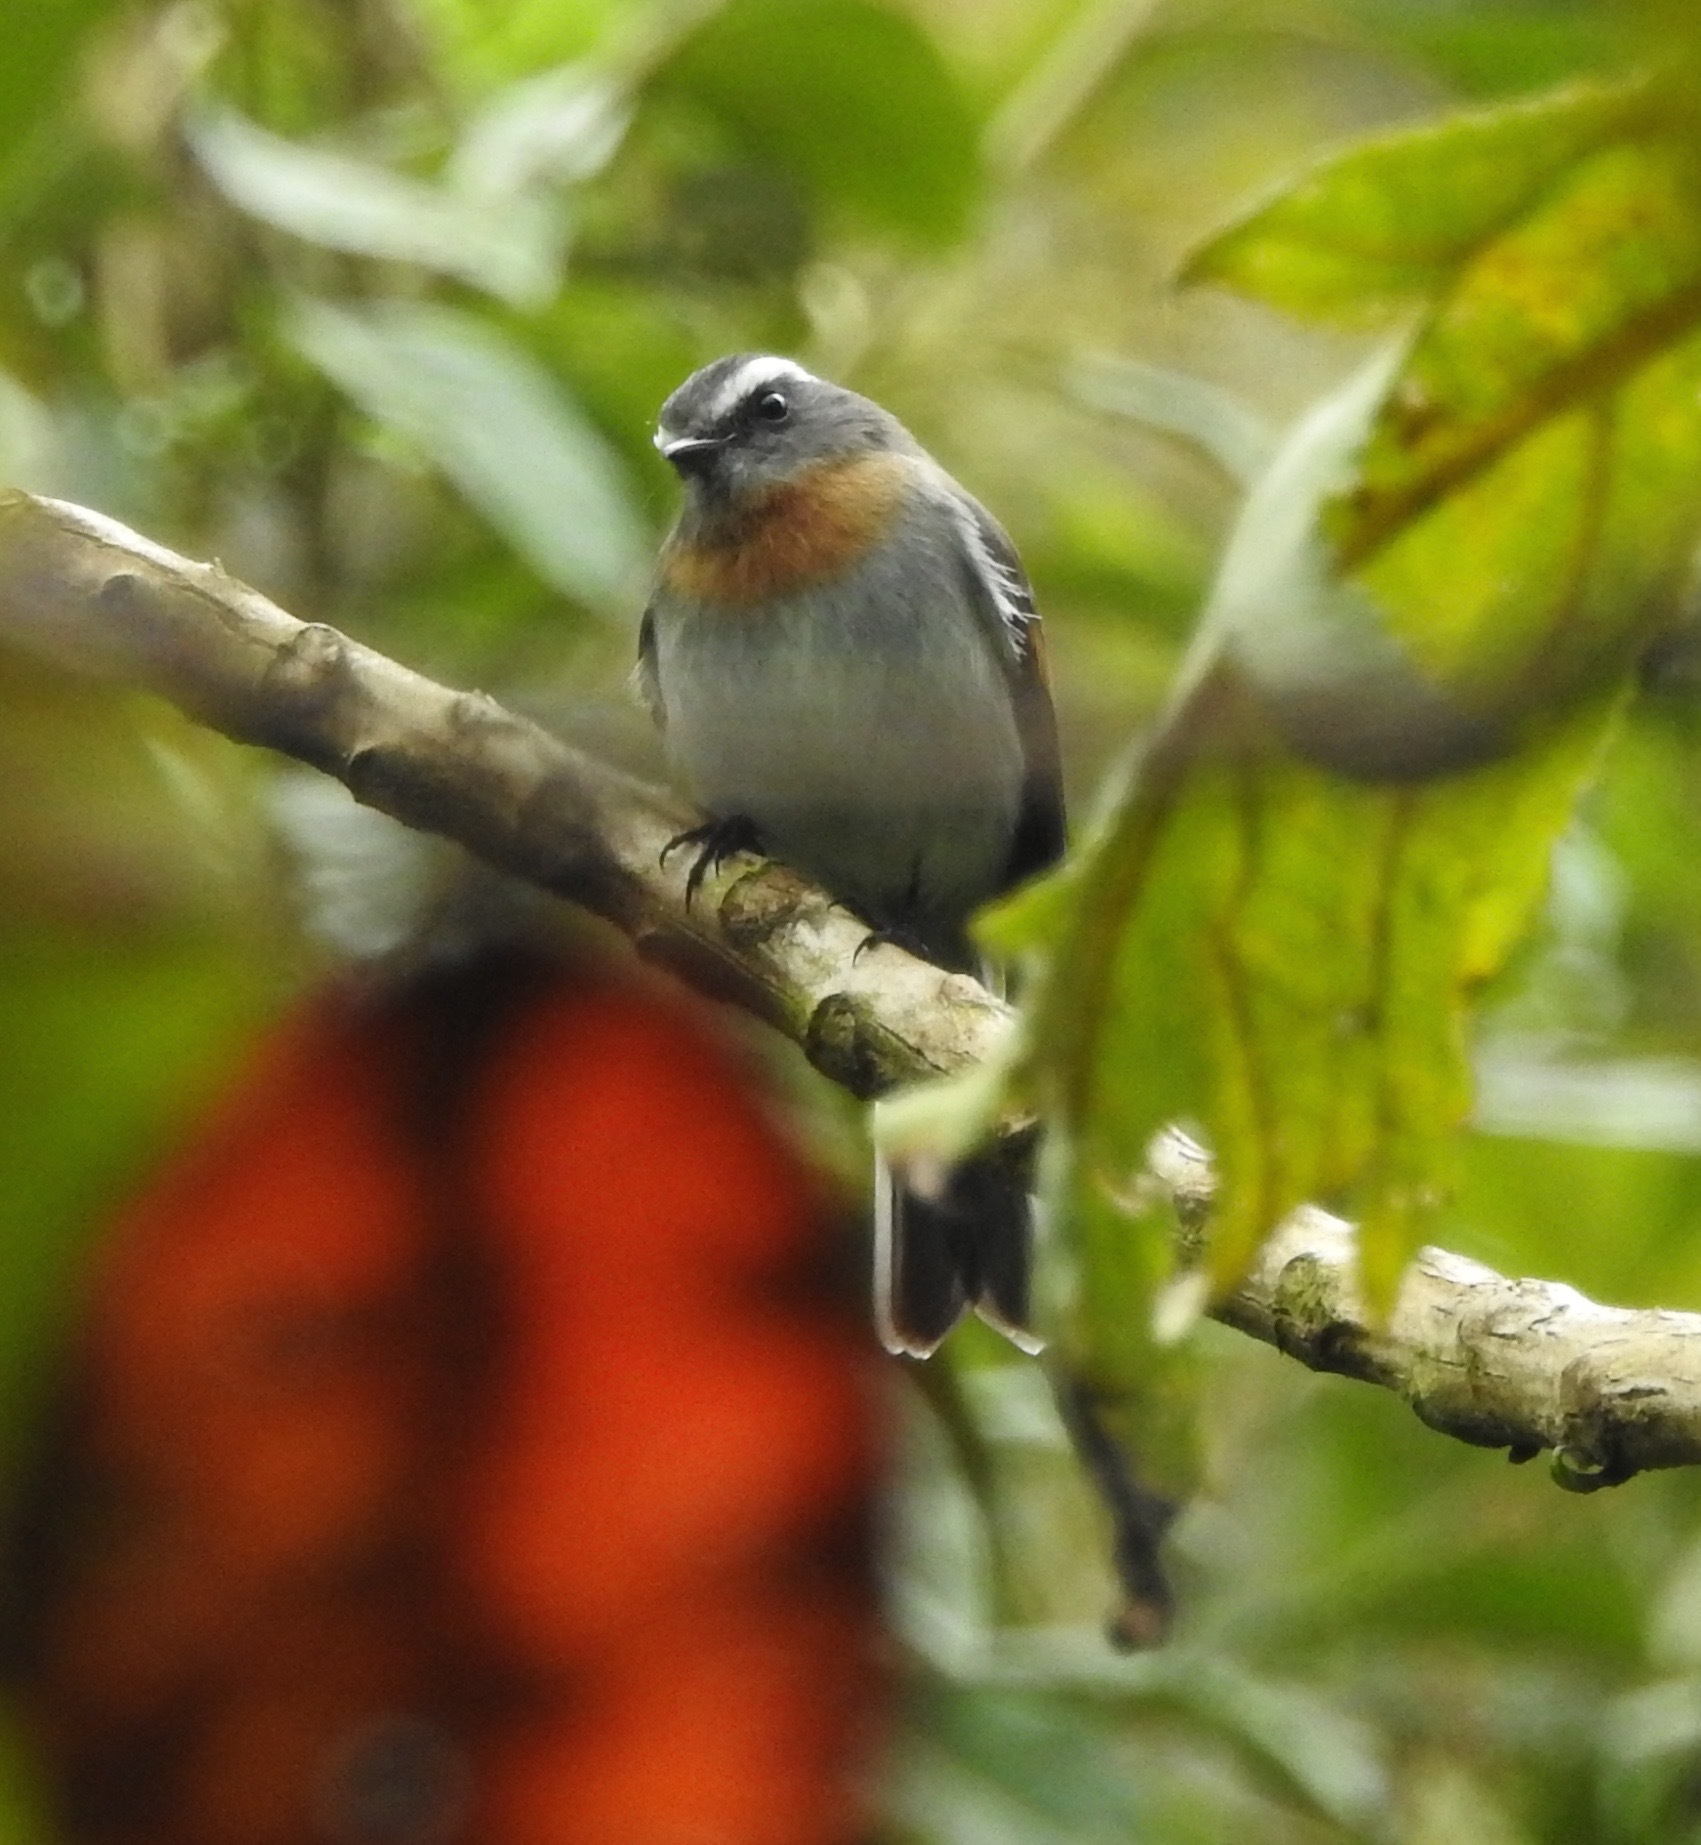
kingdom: Animalia
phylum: Chordata
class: Aves
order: Passeriformes
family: Tyrannidae
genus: Ochthoeca
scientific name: Ochthoeca rufipectoralis
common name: Rufous-breasted chat-tyrant
